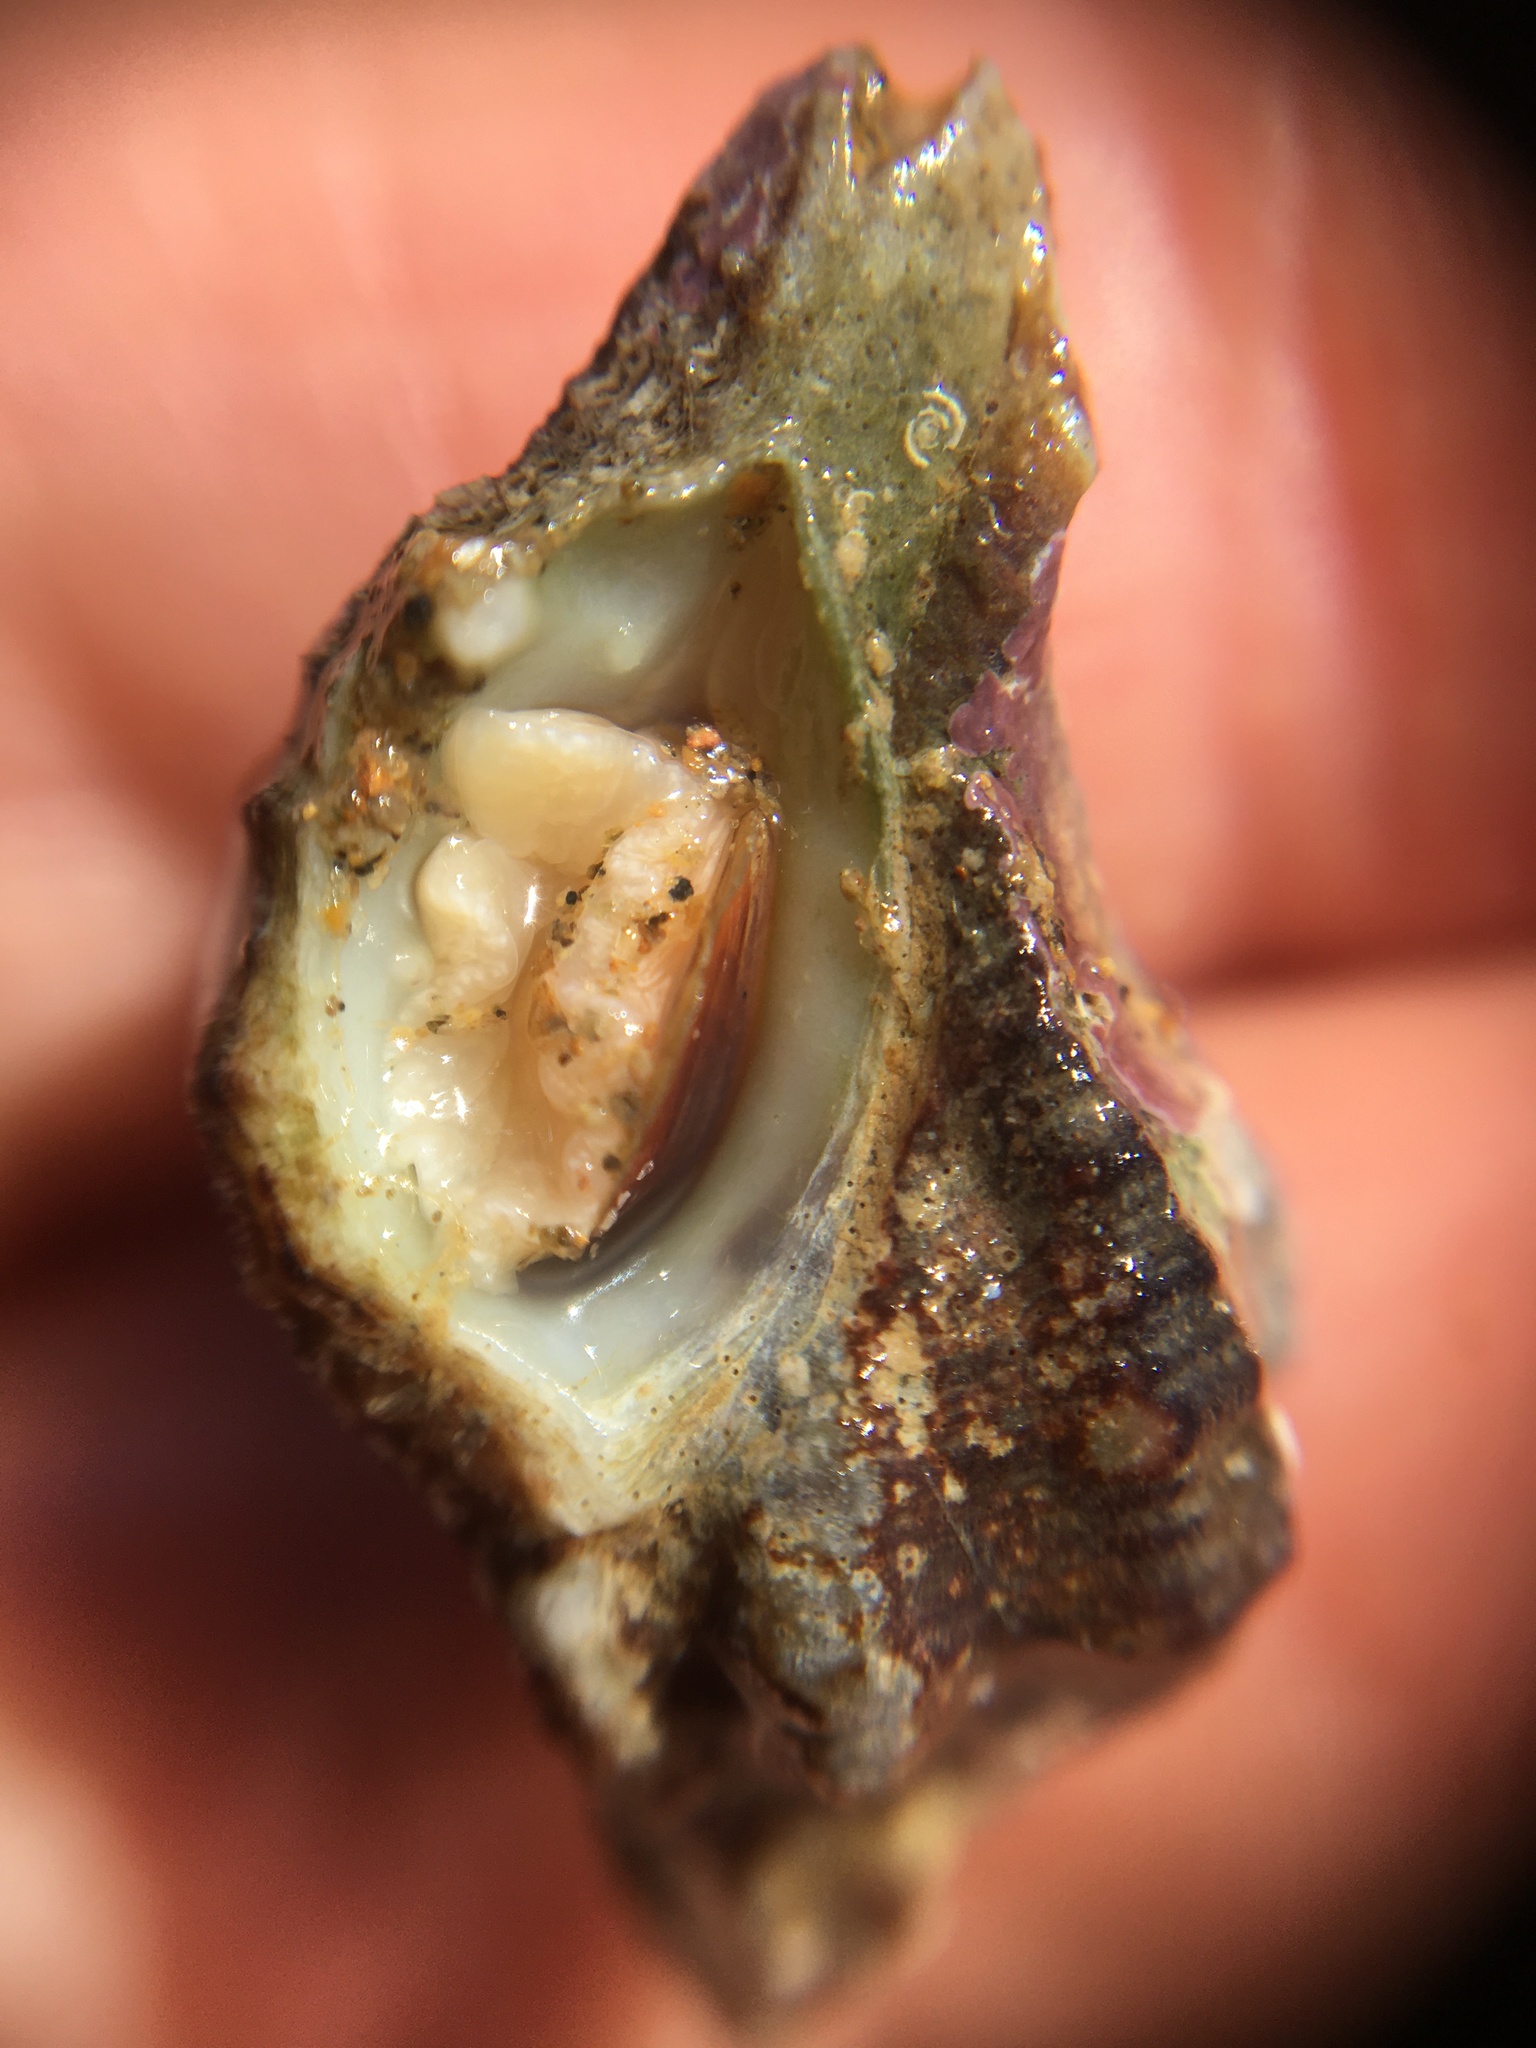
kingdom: Animalia
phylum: Mollusca
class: Gastropoda
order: Neogastropoda
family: Muricidae
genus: Ceratostoma
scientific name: Ceratostoma nuttalli
